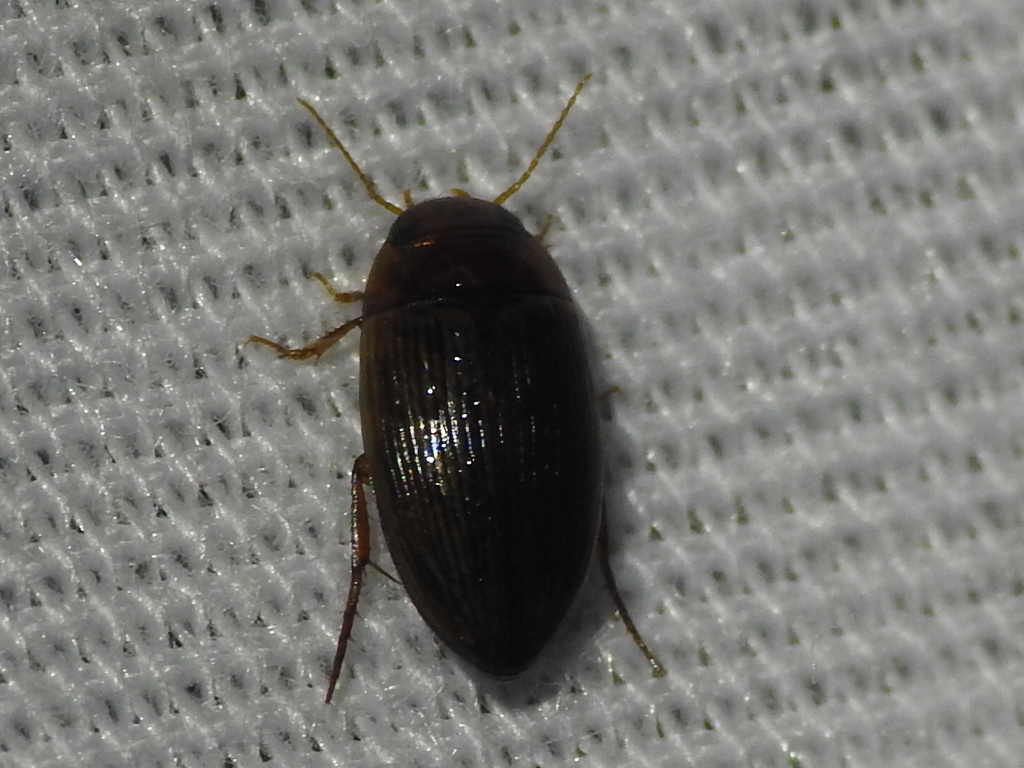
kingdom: Animalia
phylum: Arthropoda
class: Insecta
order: Coleoptera
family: Dytiscidae
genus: Copelatus
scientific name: Copelatus glyphicus
